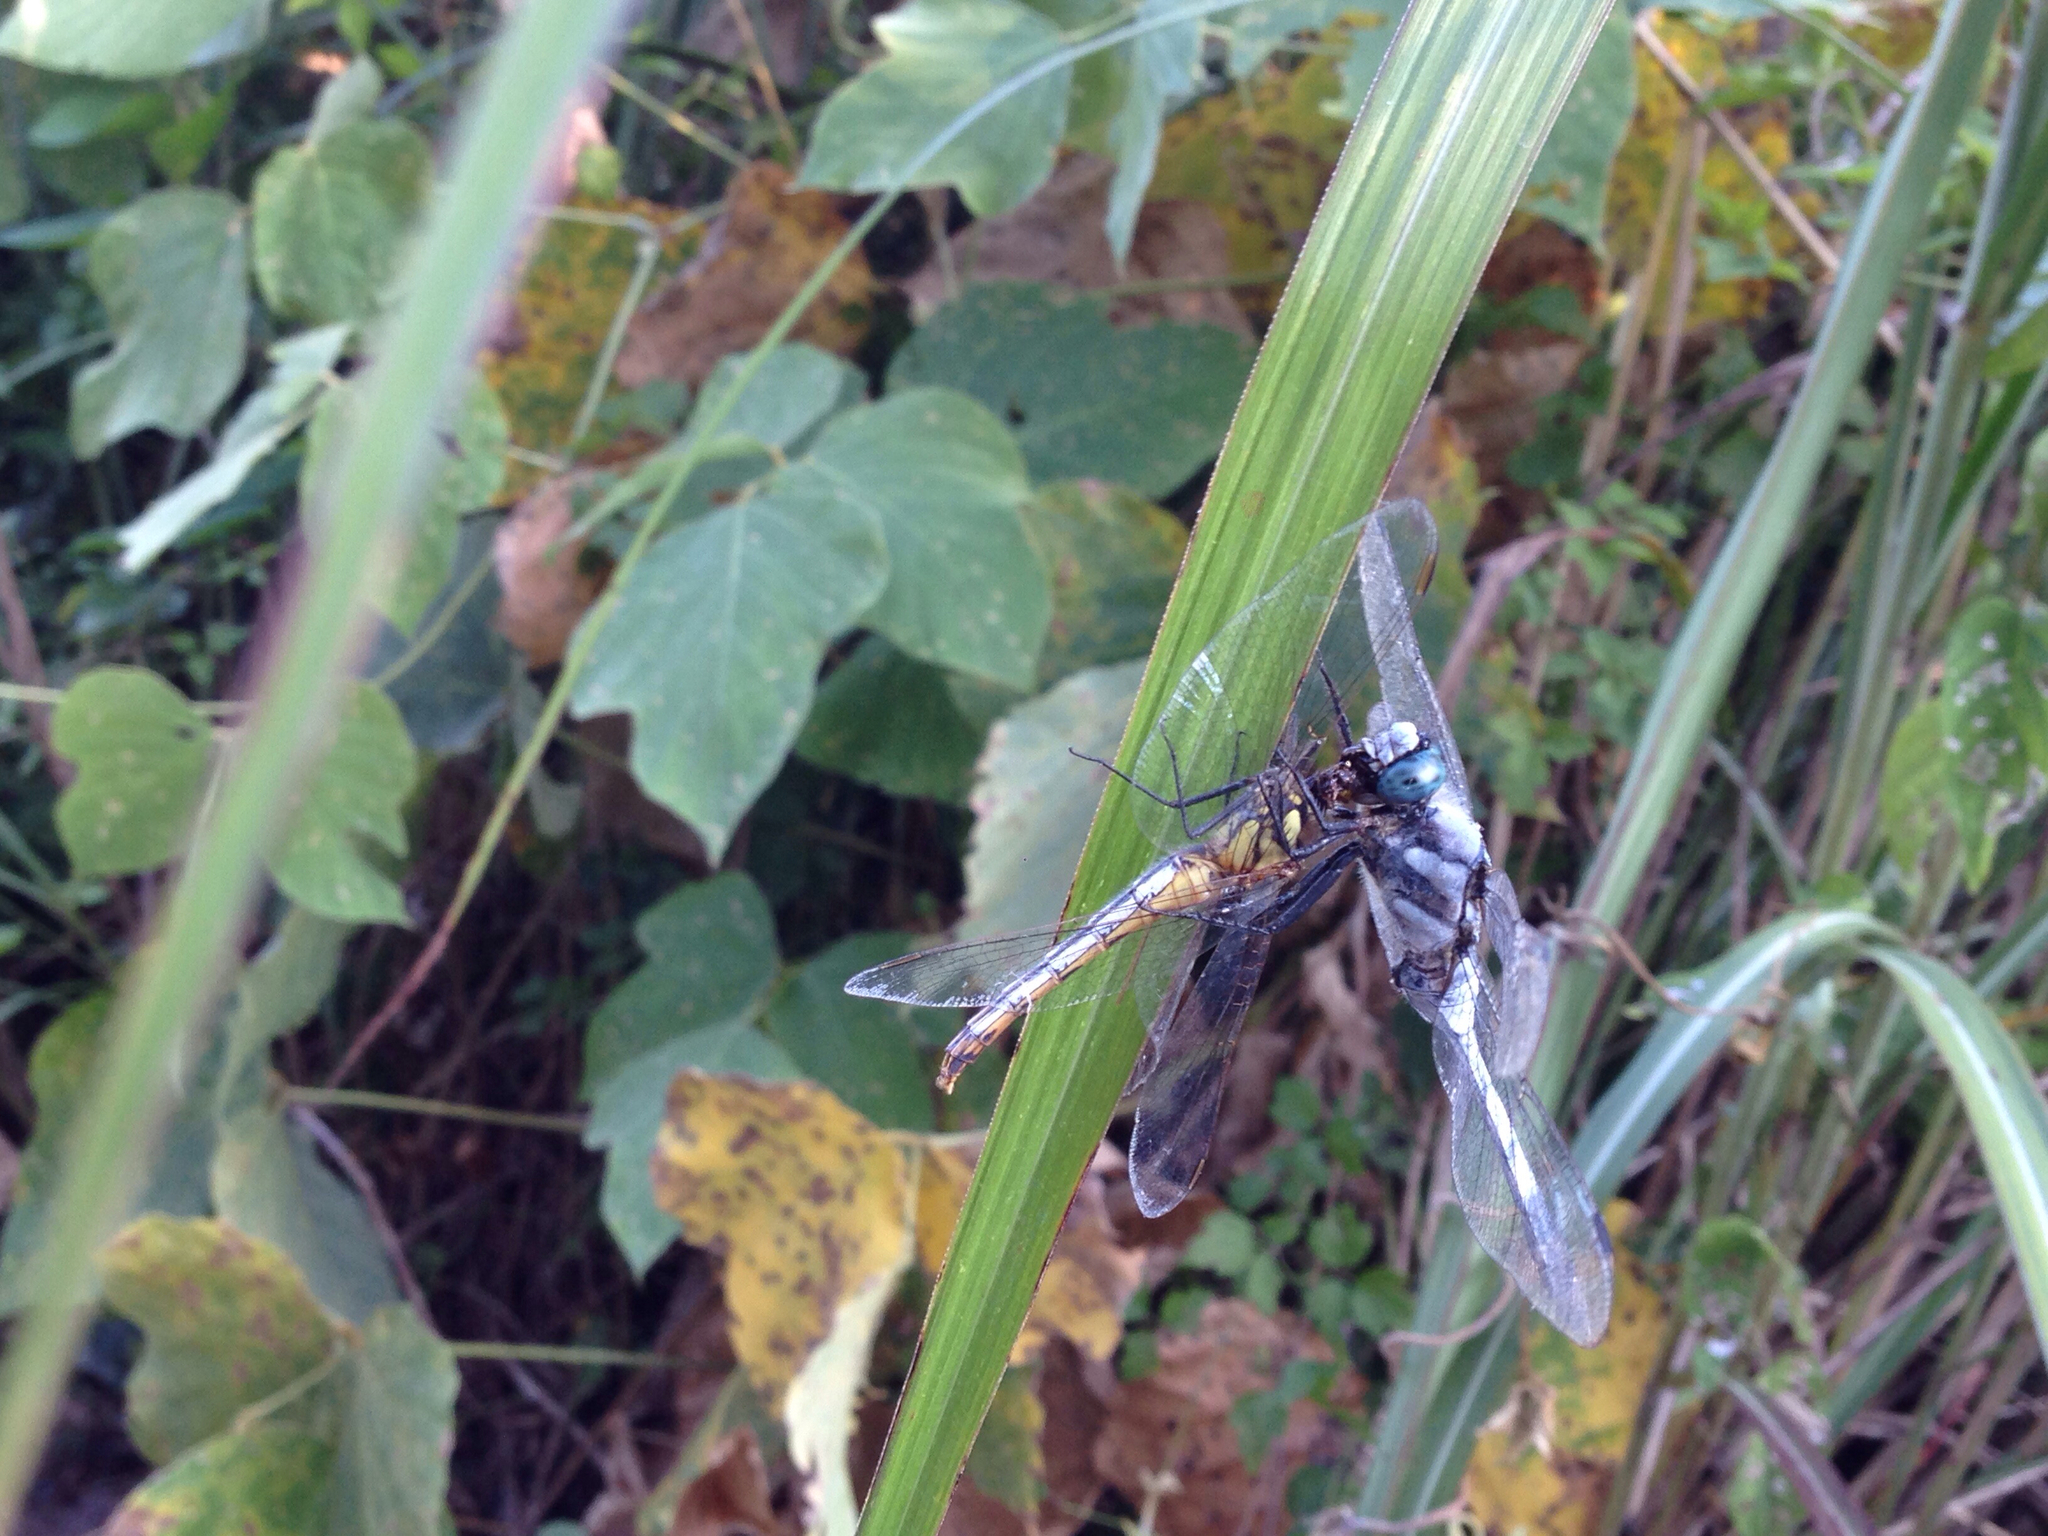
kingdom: Animalia
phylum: Arthropoda
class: Insecta
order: Odonata
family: Libellulidae
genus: Orthetrum
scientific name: Orthetrum albistylum
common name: White-tailed skimmer
